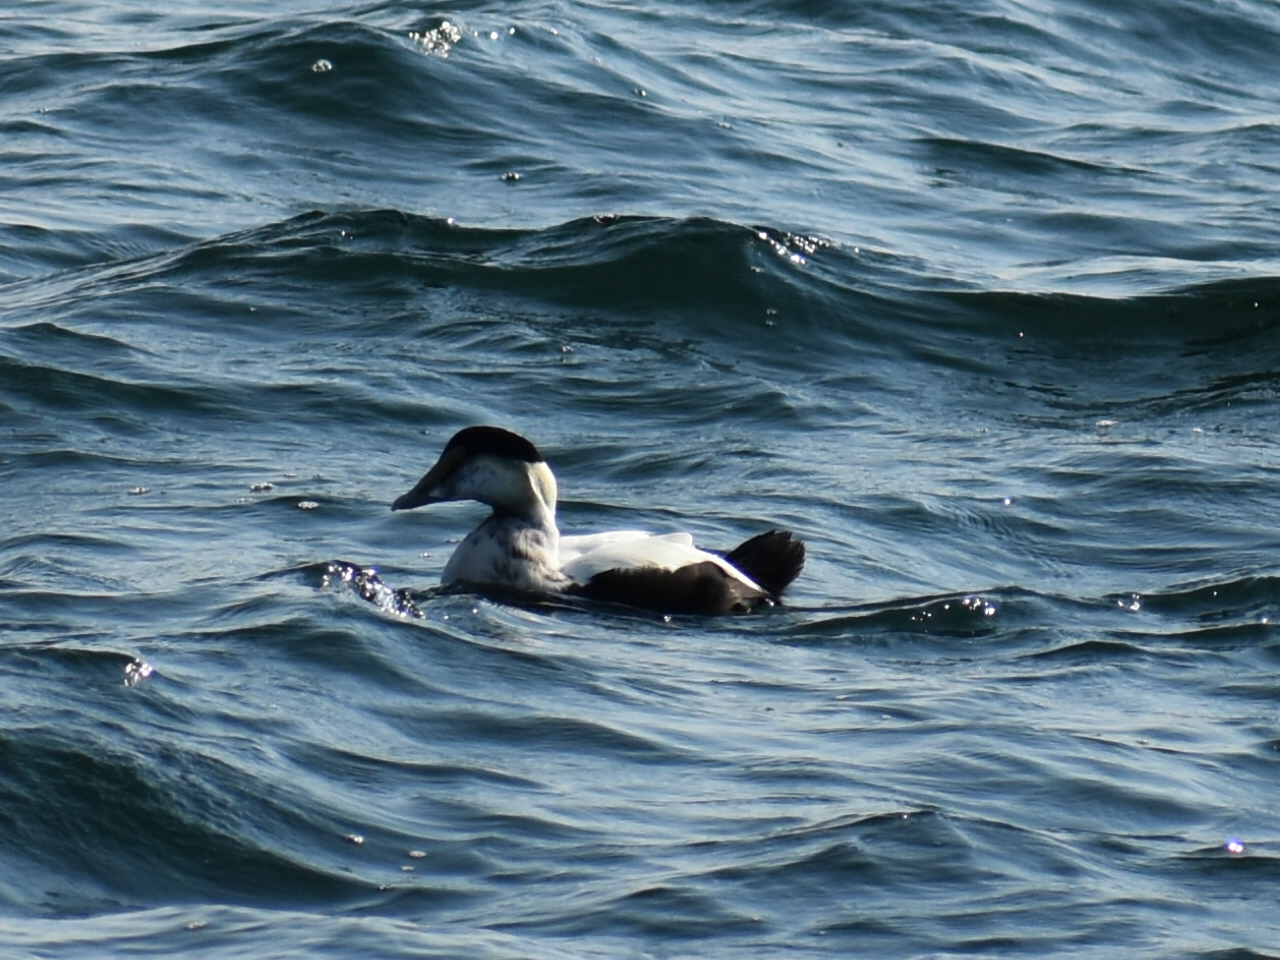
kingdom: Animalia
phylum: Chordata
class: Aves
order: Anseriformes
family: Anatidae
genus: Somateria
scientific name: Somateria mollissima
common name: Common eider
